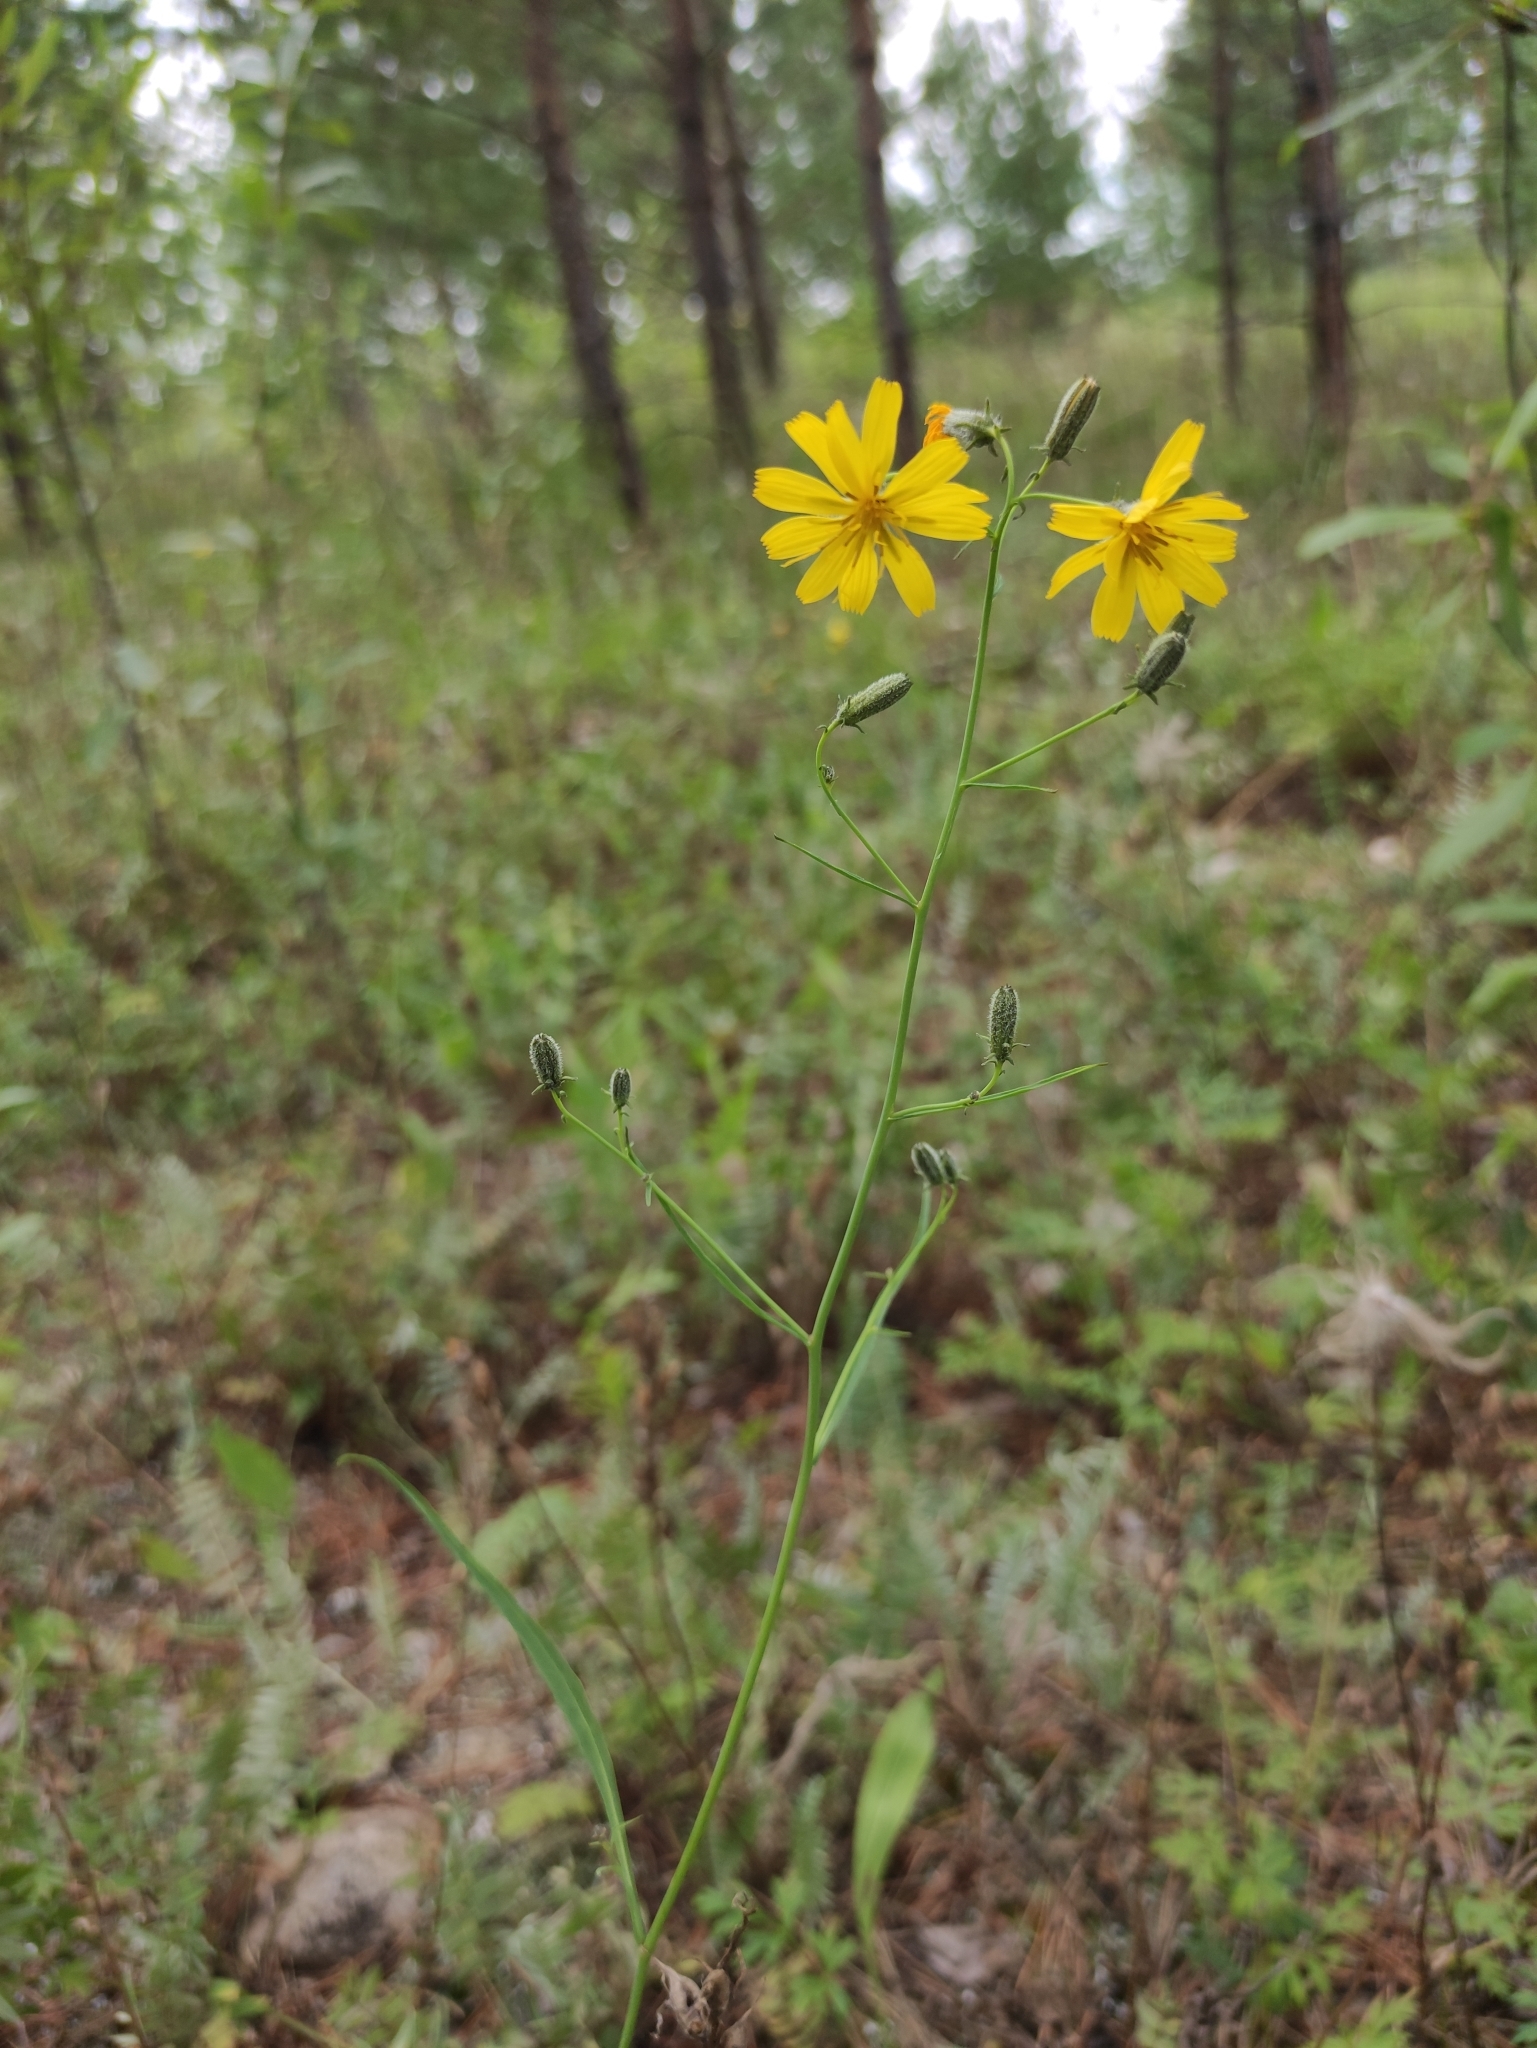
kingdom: Plantae
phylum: Tracheophyta
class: Magnoliopsida
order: Asterales
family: Asteraceae
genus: Crepidiastrum
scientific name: Crepidiastrum tenuifolium
